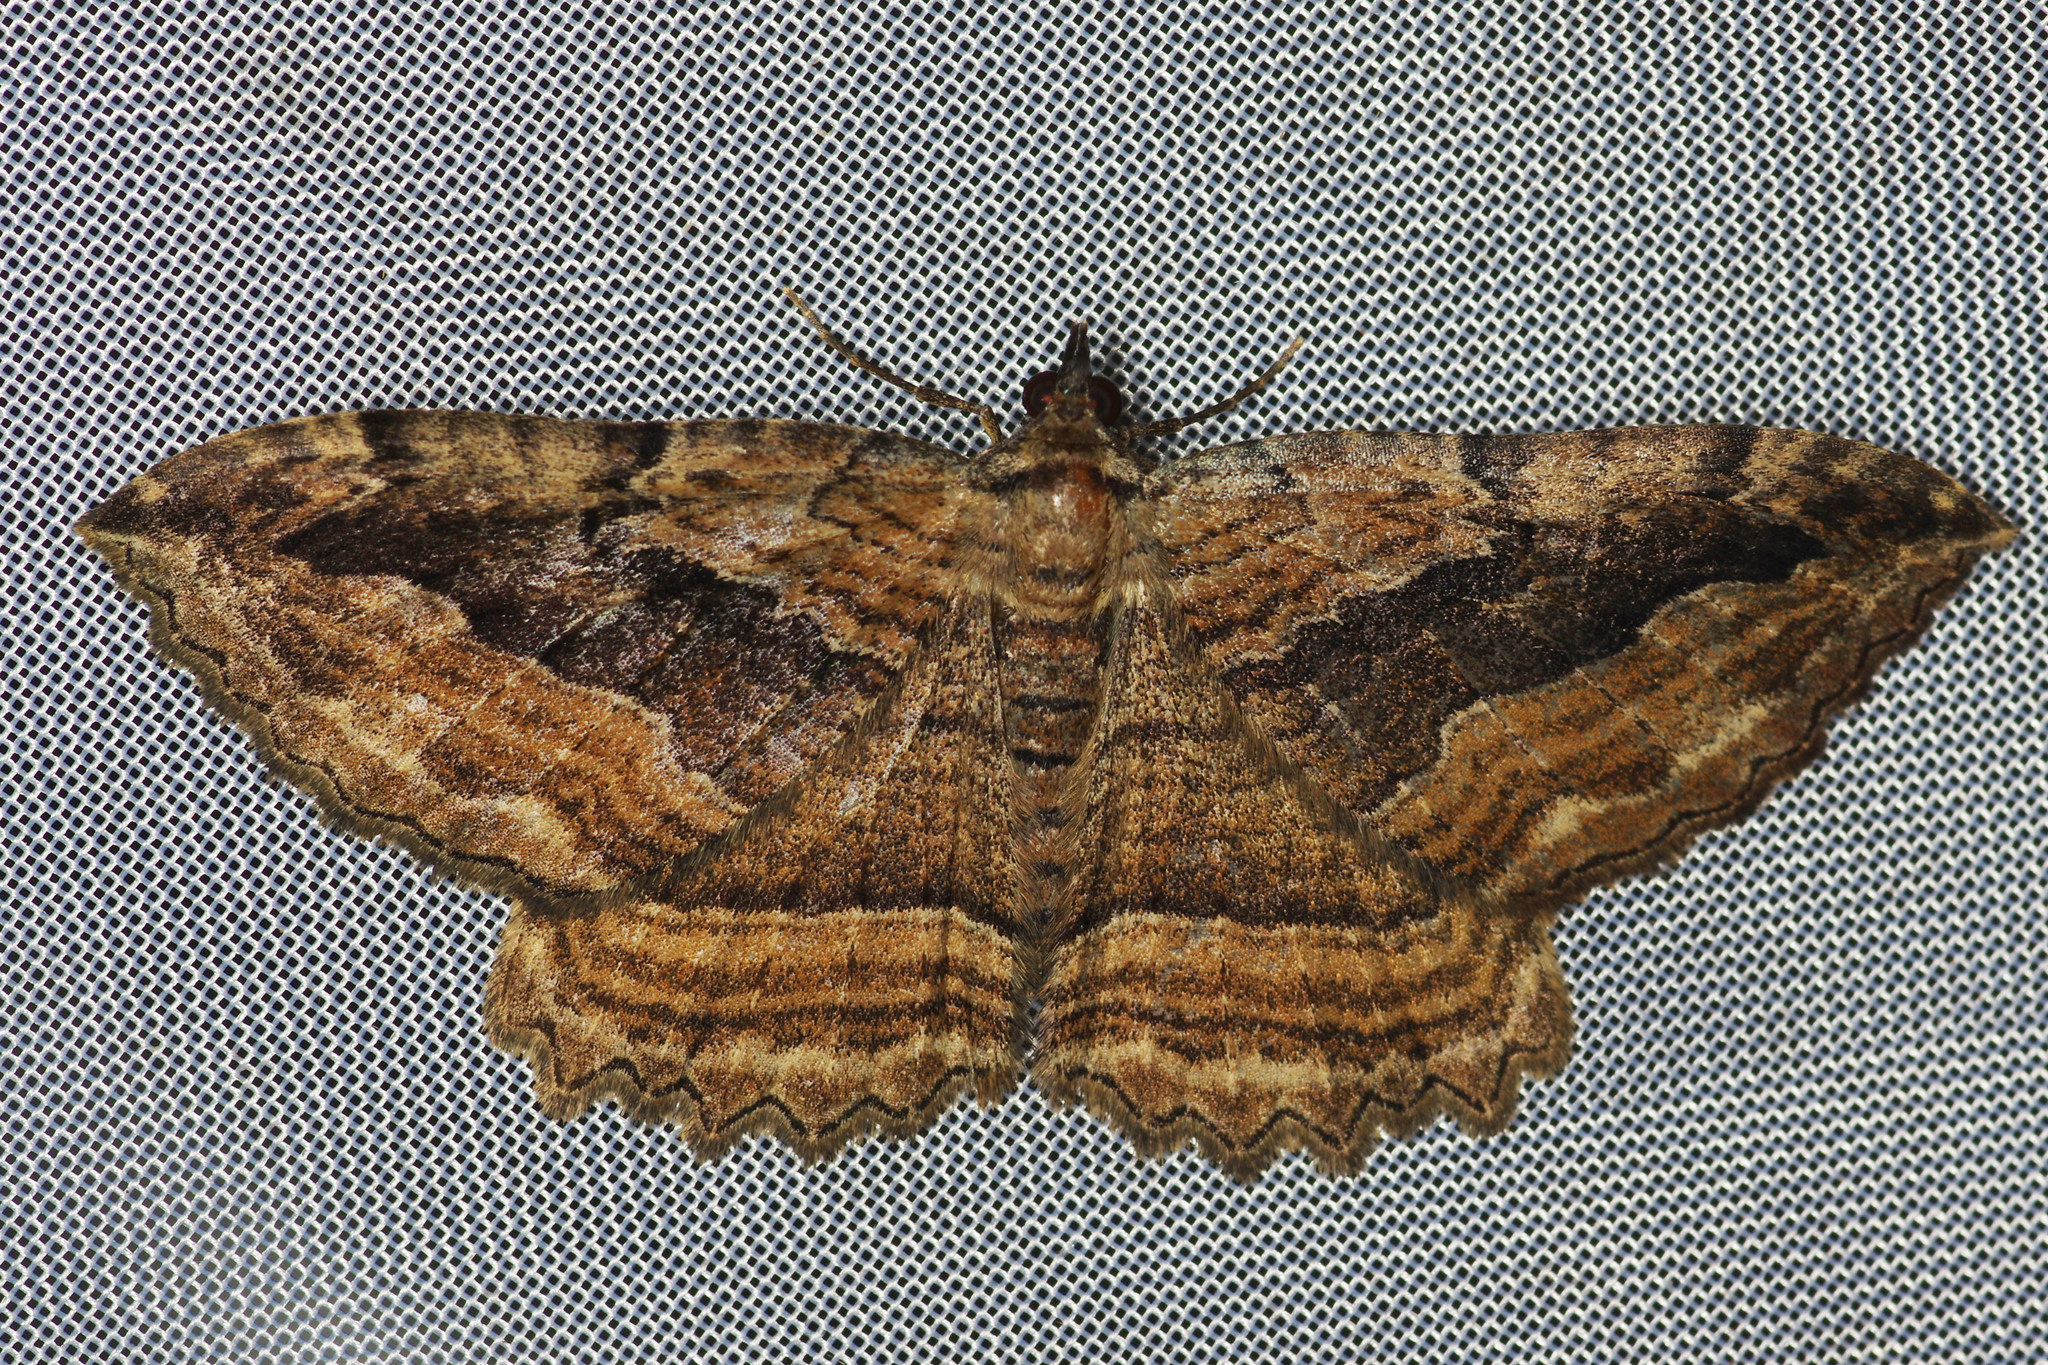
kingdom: Animalia
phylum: Arthropoda
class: Insecta
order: Lepidoptera
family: Geometridae
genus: Philereme
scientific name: Philereme transversata
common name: Dark umber
